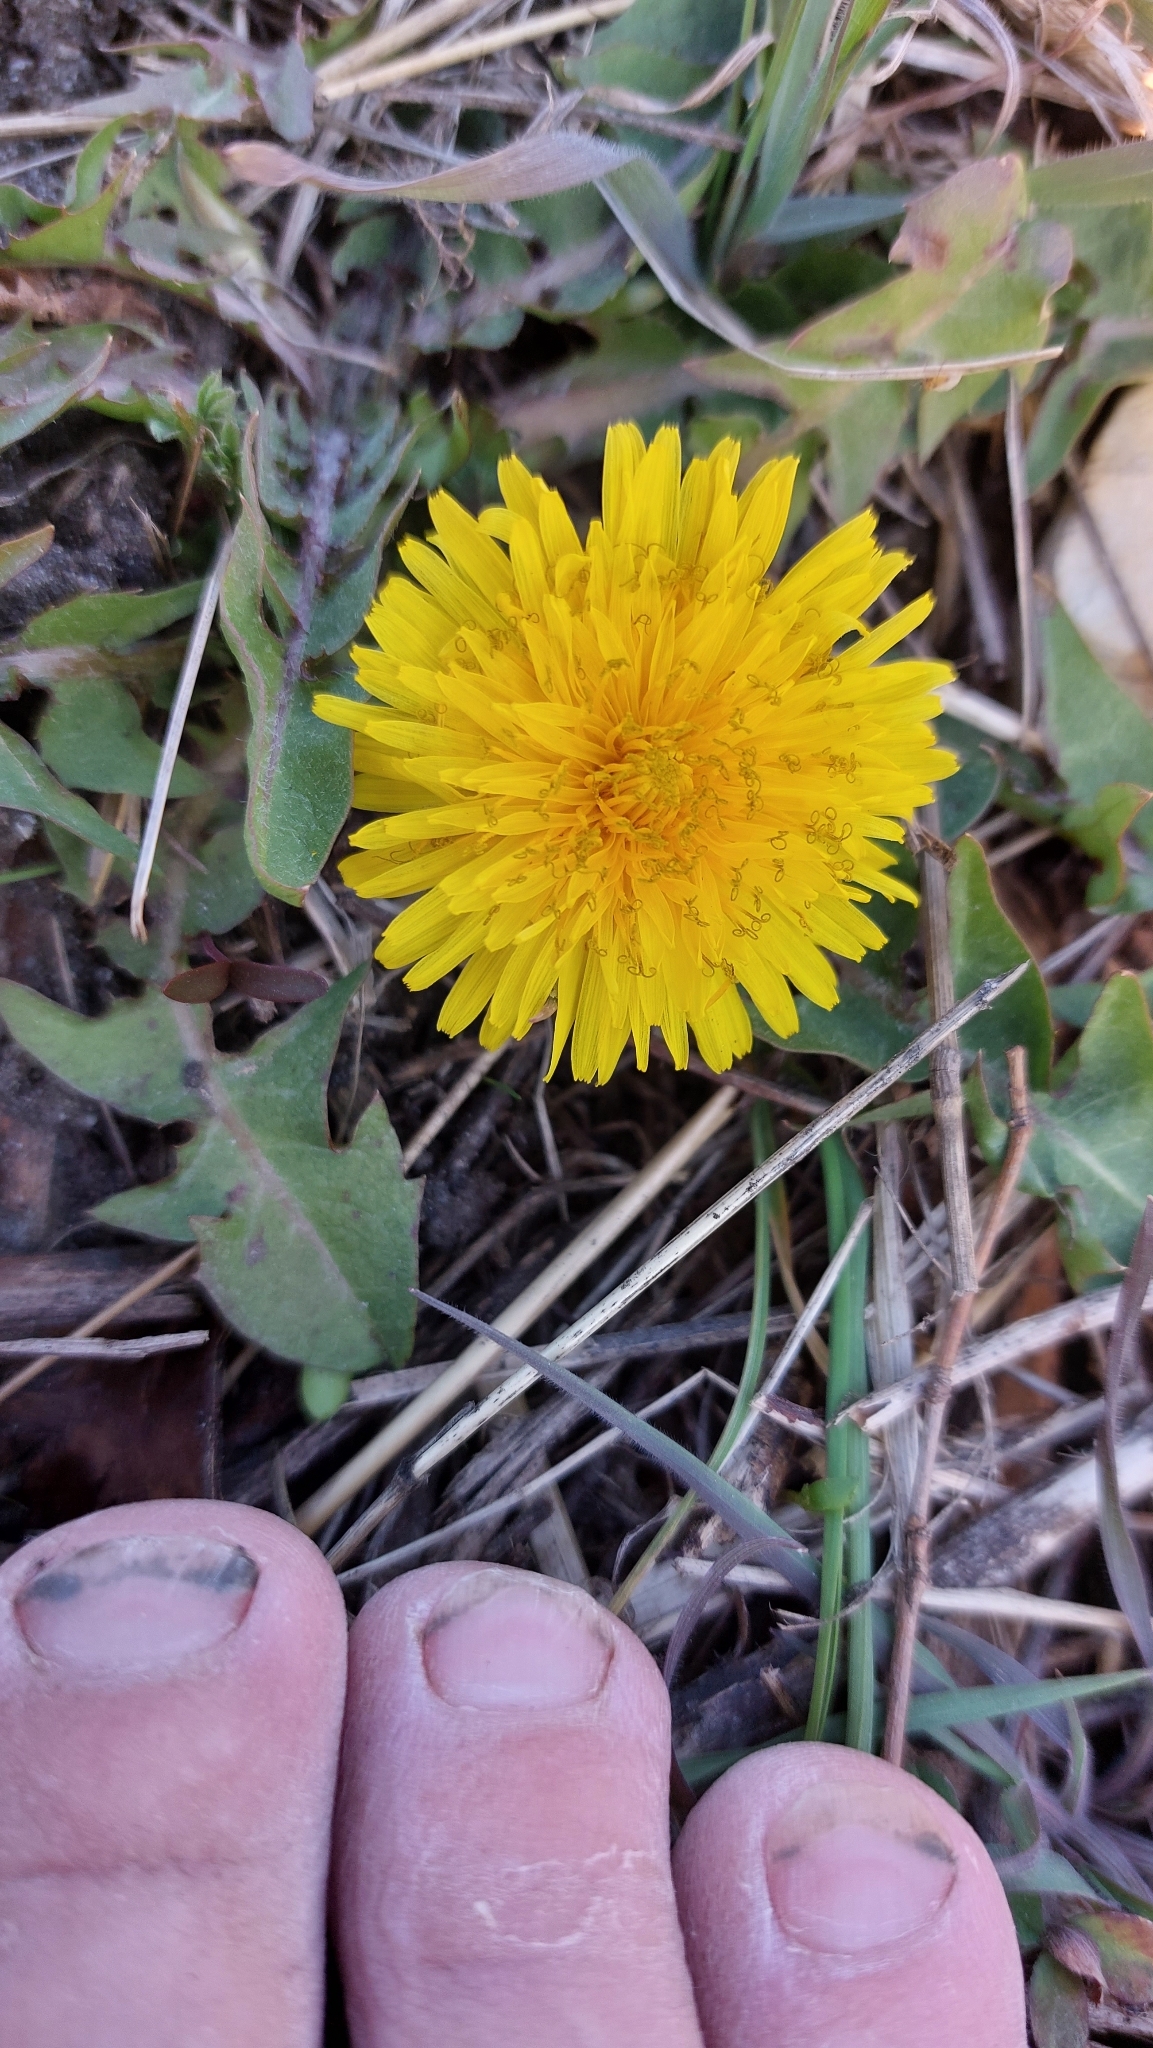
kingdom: Plantae
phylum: Tracheophyta
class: Magnoliopsida
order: Asterales
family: Asteraceae
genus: Taraxacum
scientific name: Taraxacum
